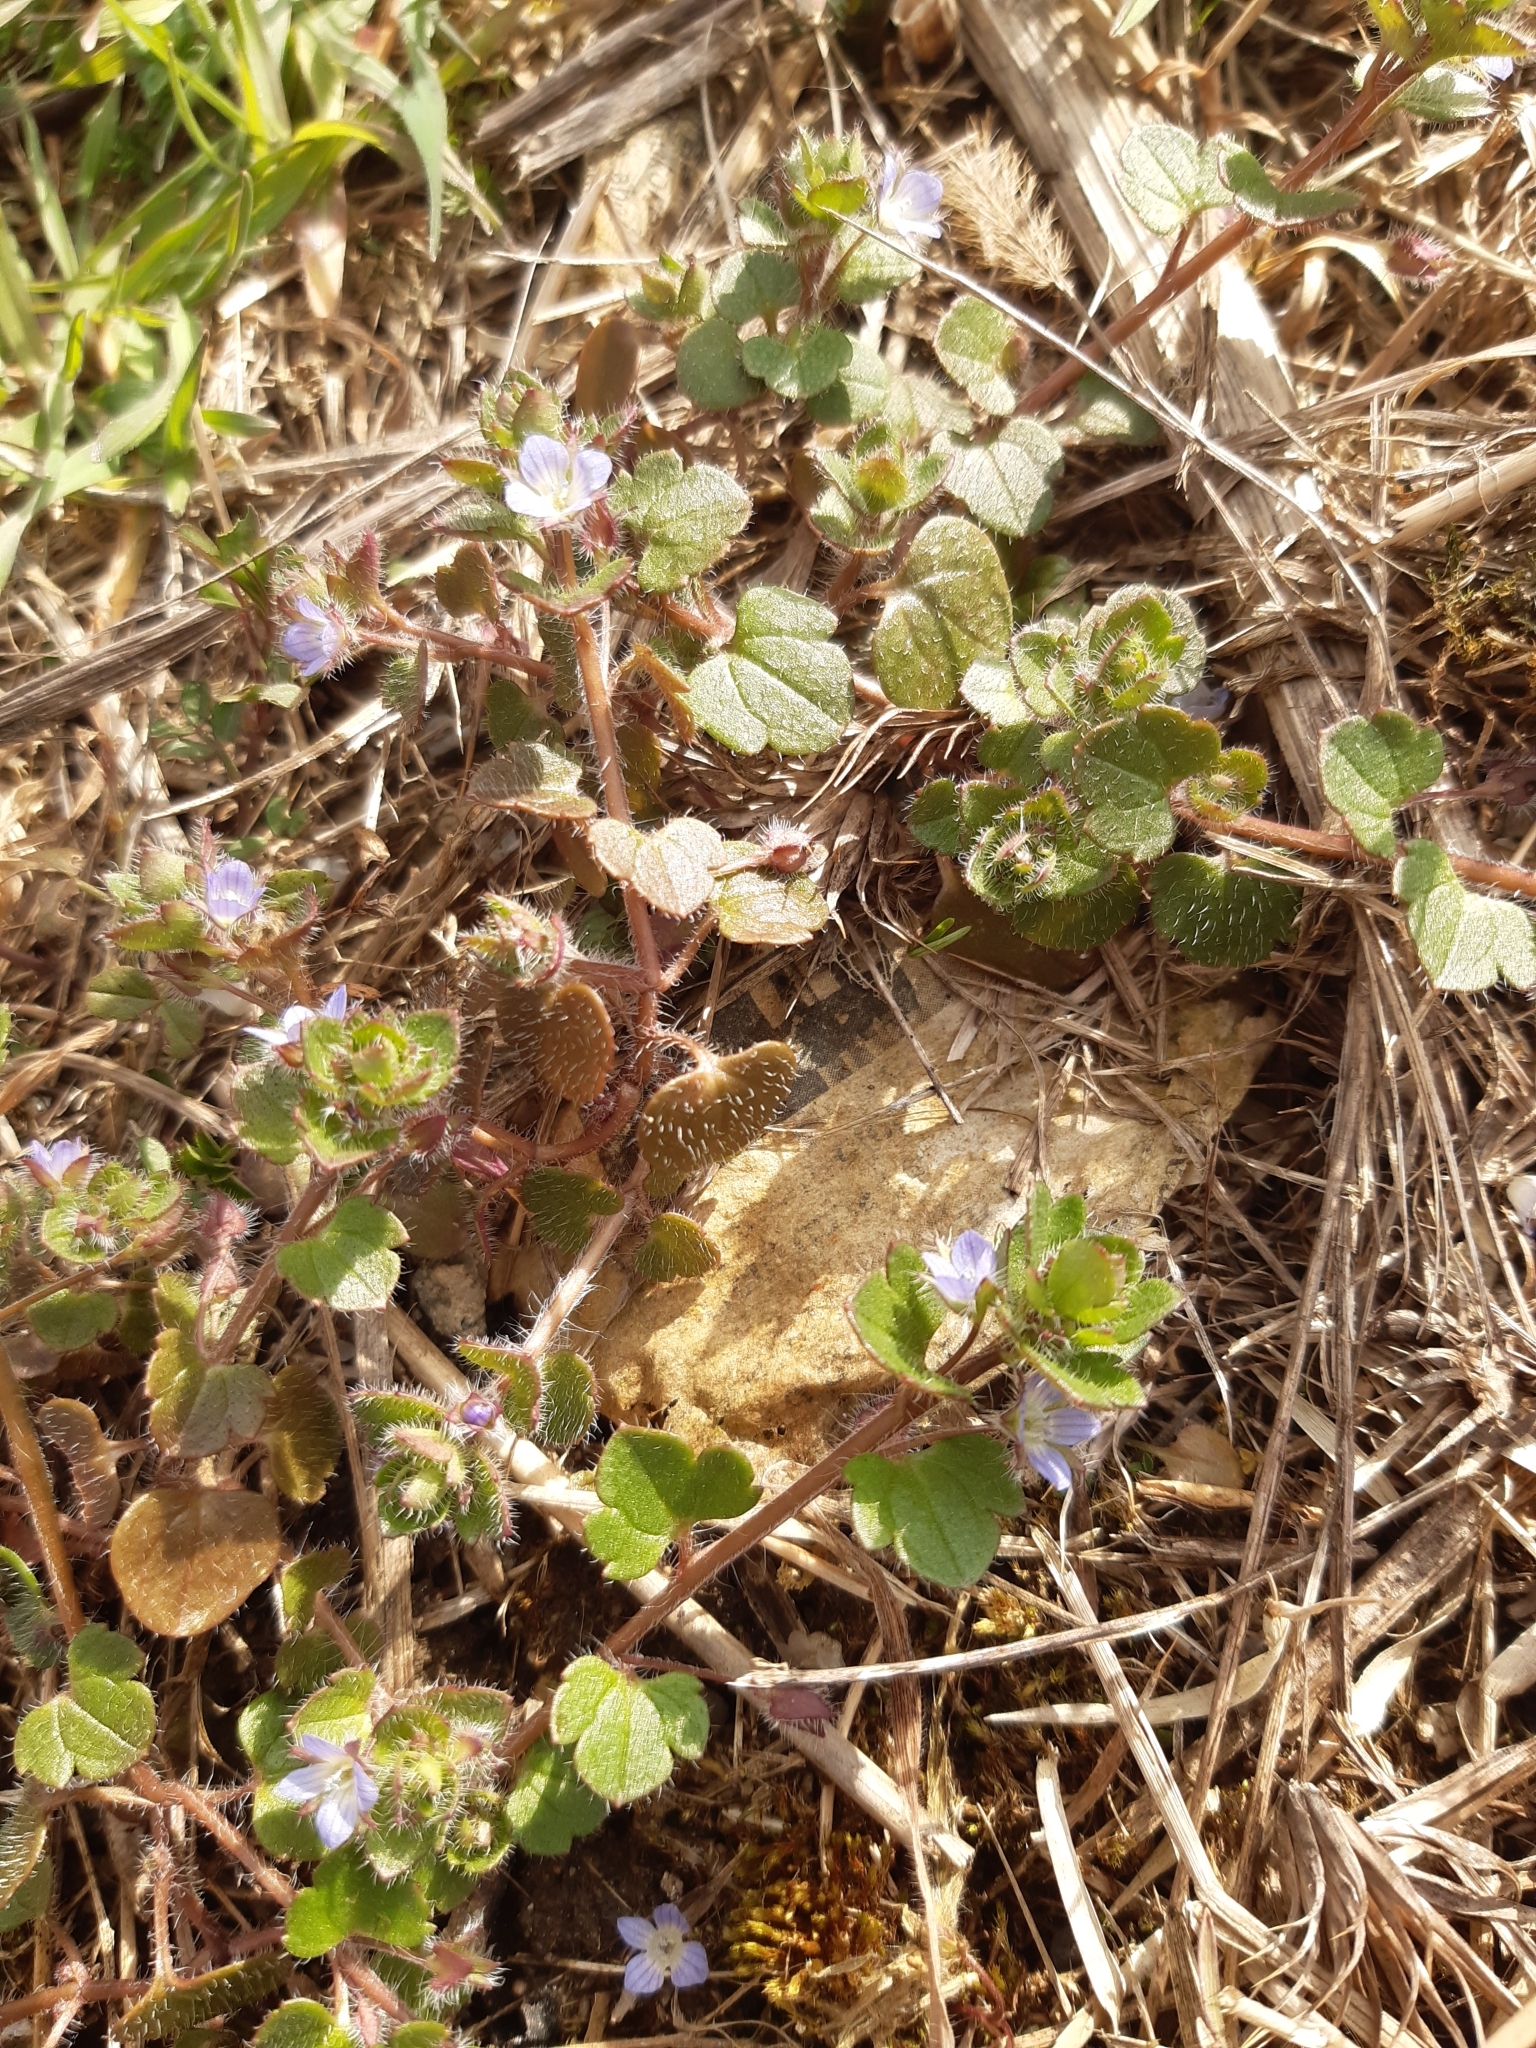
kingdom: Plantae
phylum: Tracheophyta
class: Magnoliopsida
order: Lamiales
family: Plantaginaceae
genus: Veronica
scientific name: Veronica hederifolia
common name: Ivy-leaved speedwell
